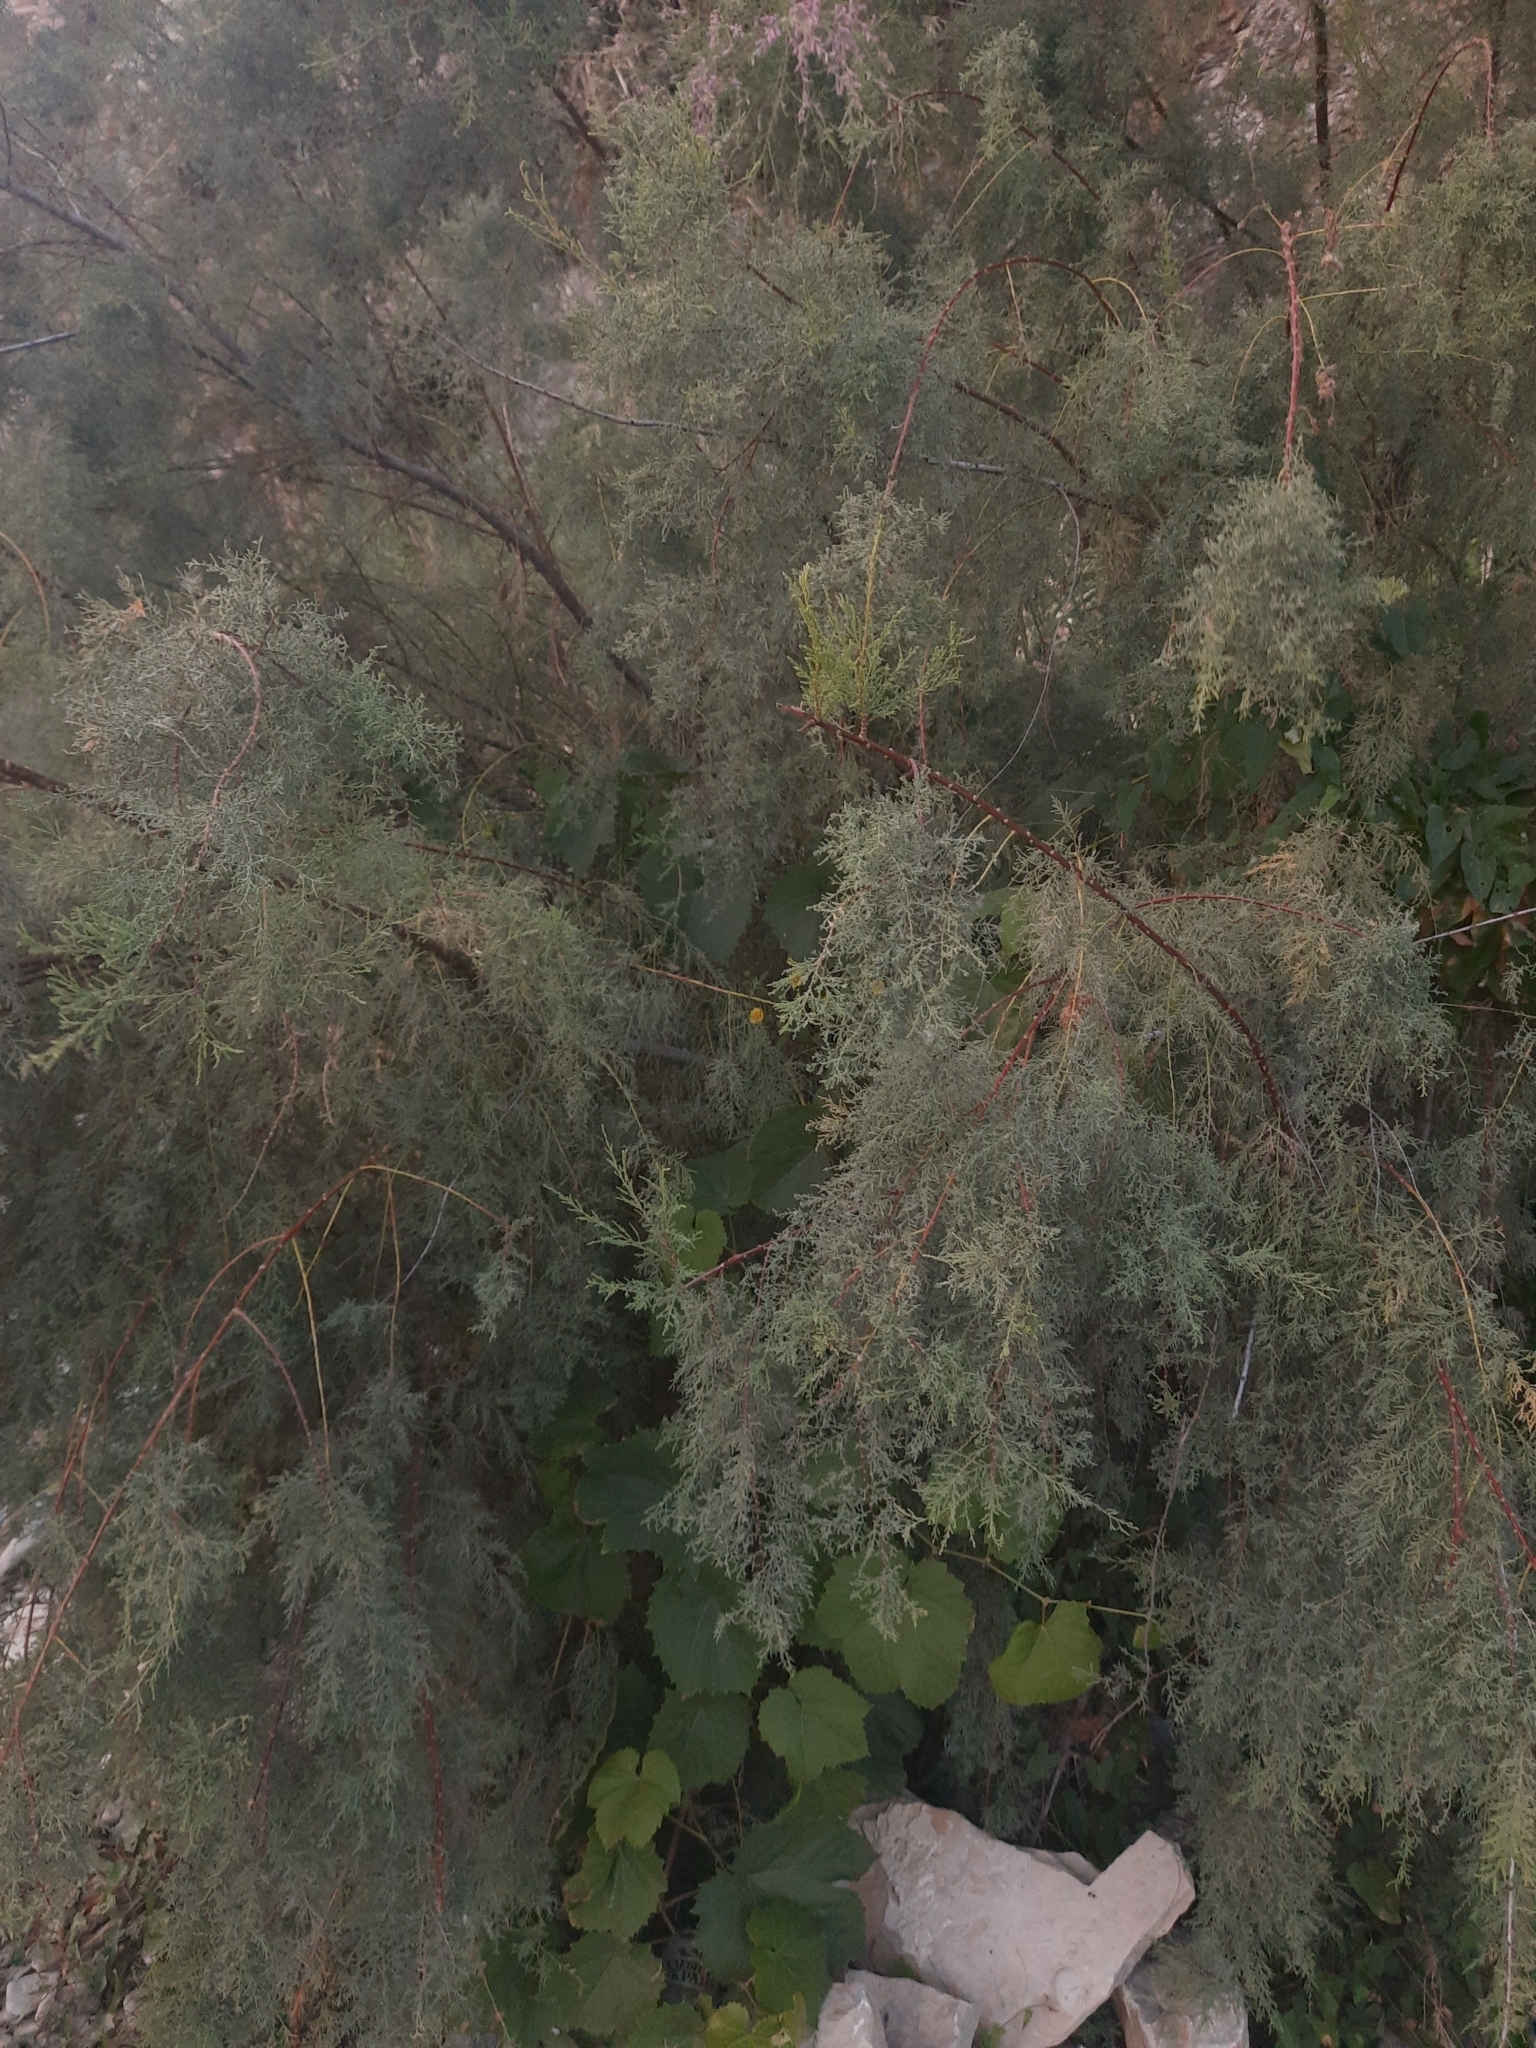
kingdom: Plantae
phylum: Tracheophyta
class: Magnoliopsida
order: Caryophyllales
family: Tamaricaceae
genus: Tamarix
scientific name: Tamarix ramosissima
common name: Pink tamarisk
